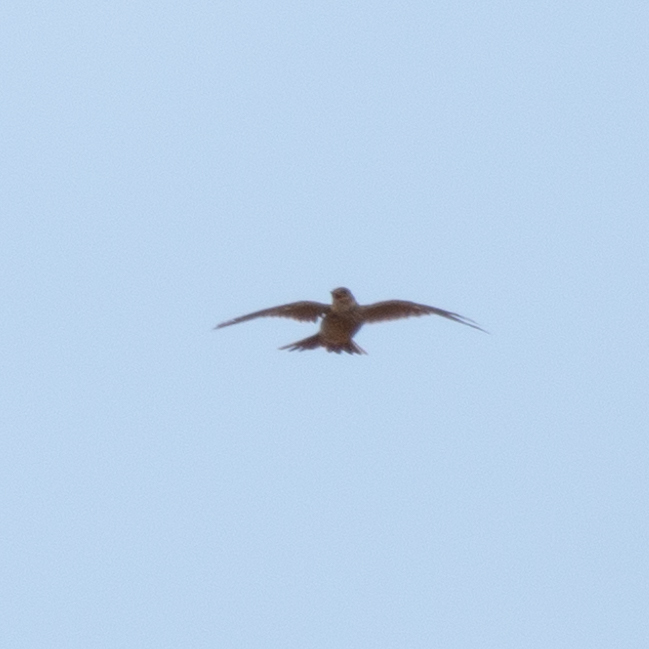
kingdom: Animalia
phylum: Chordata
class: Aves
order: Passeriformes
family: Alaudidae
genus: Alauda
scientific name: Alauda arvensis
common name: Eurasian skylark
